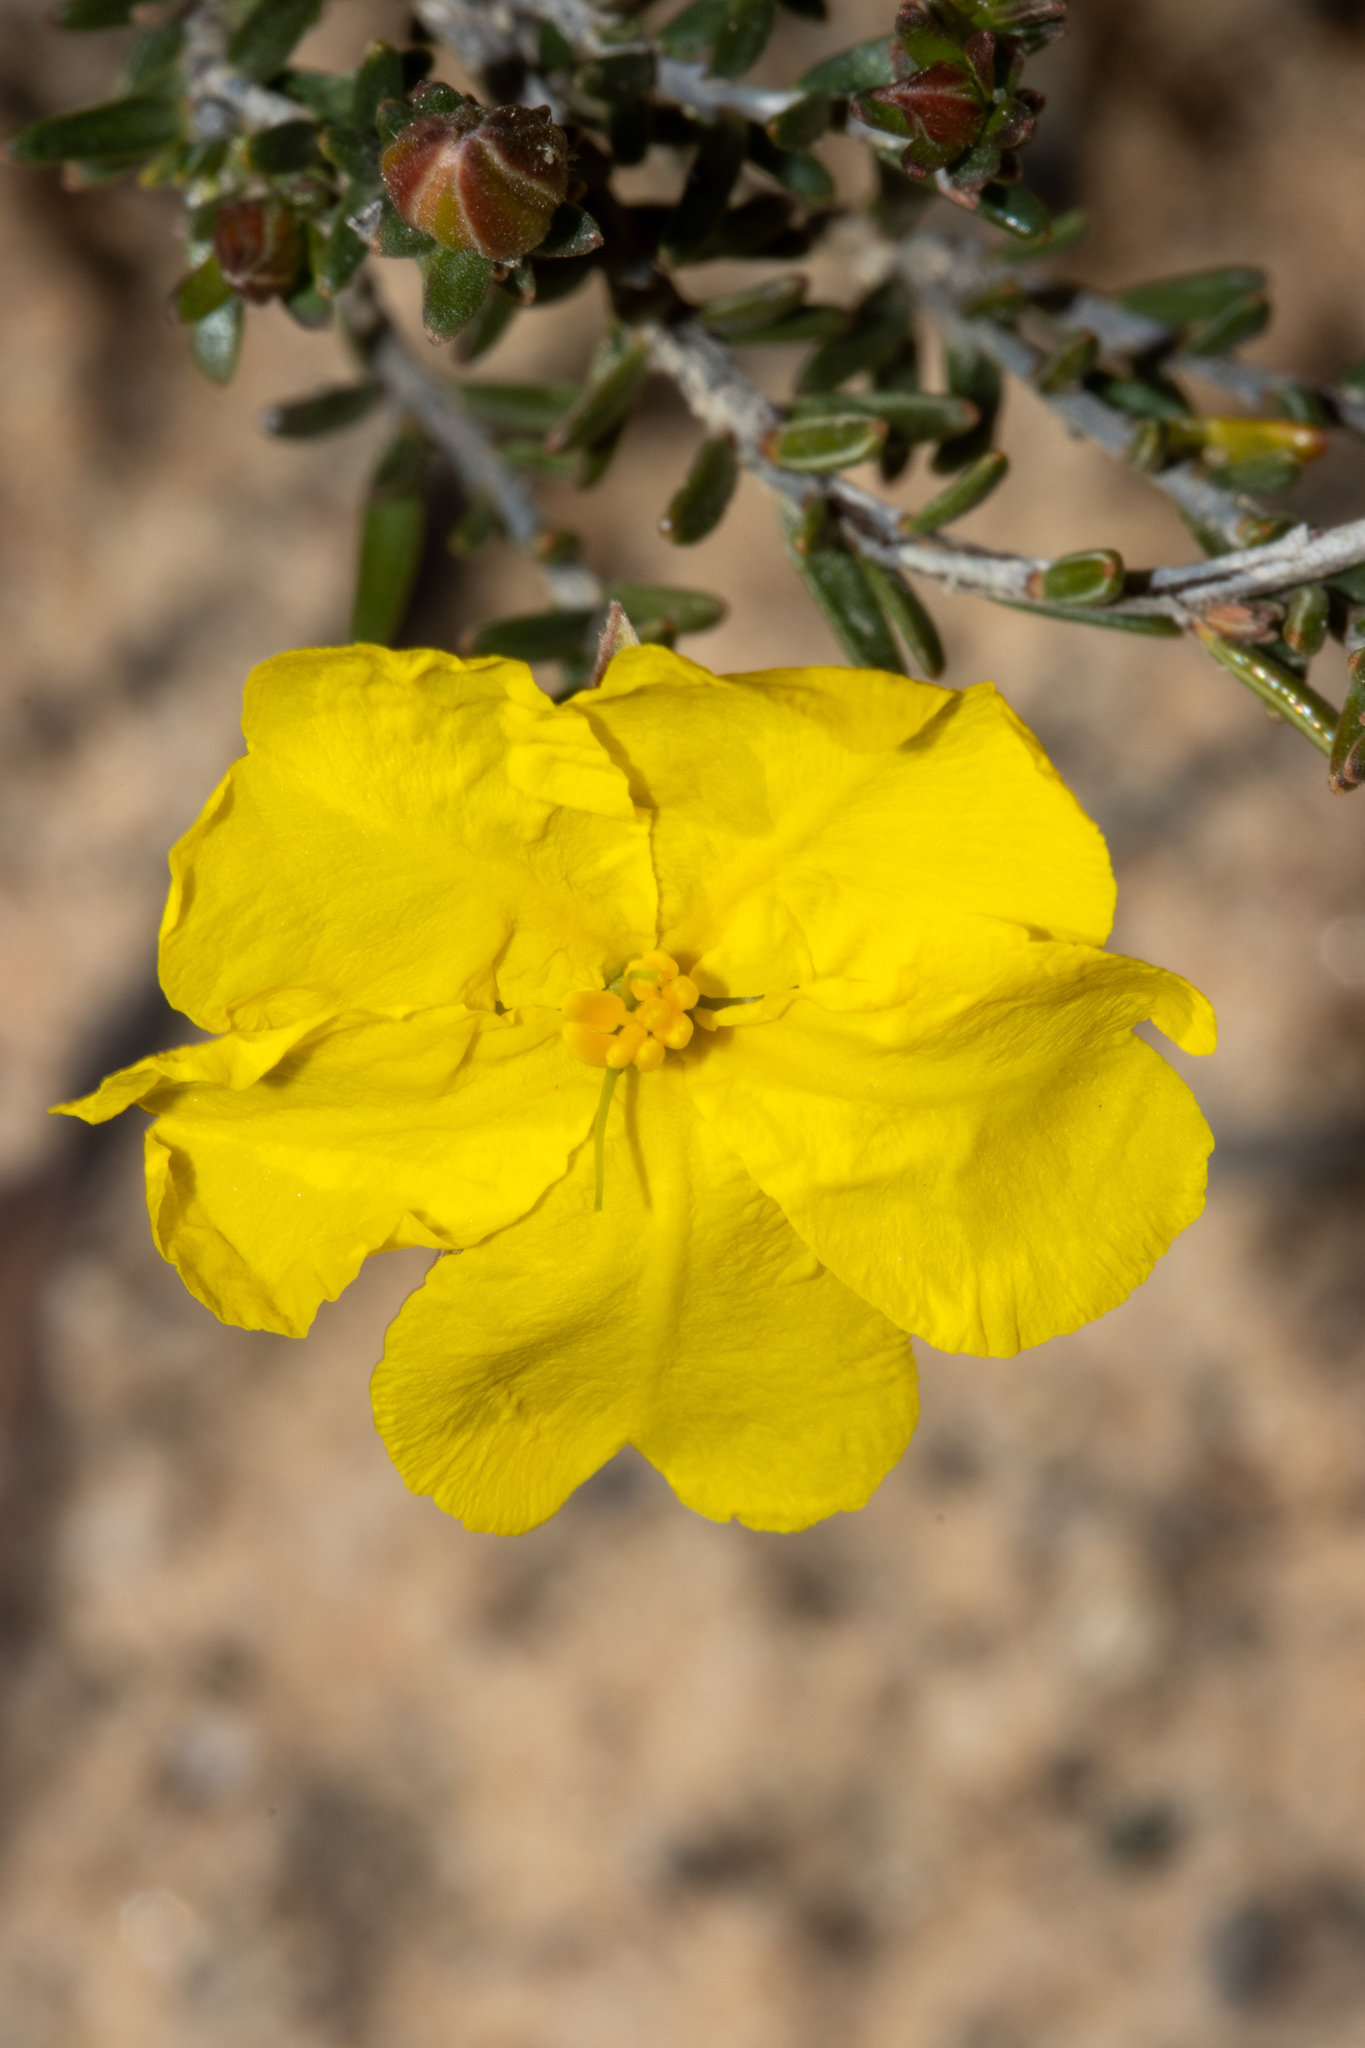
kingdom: Plantae
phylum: Tracheophyta
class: Magnoliopsida
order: Dilleniales
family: Dilleniaceae
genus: Hibbertia
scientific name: Hibbertia devitata
